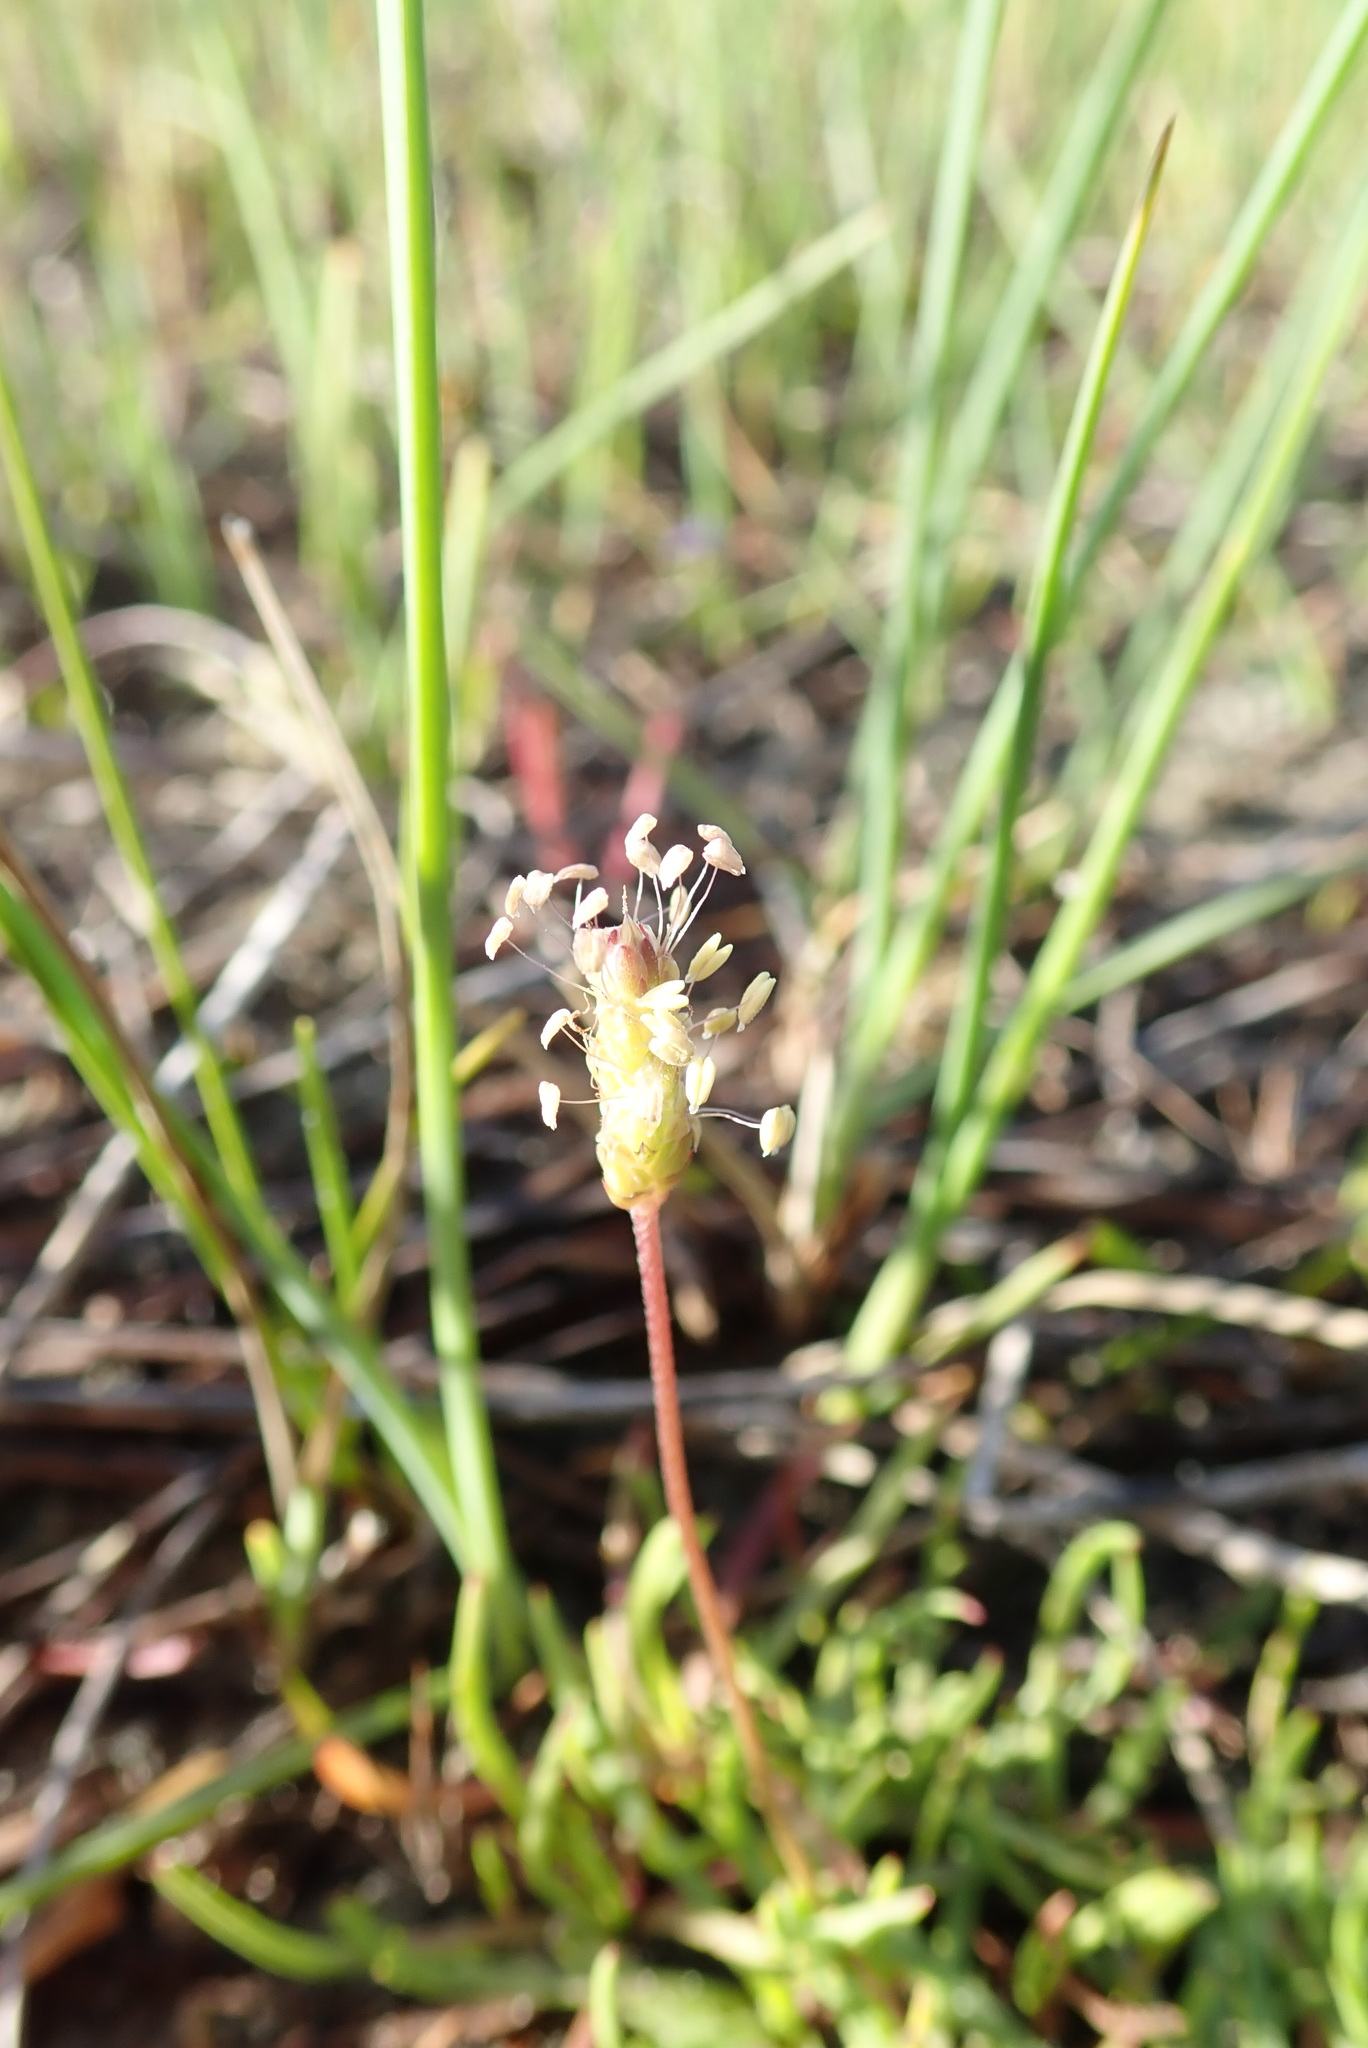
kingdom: Plantae
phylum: Tracheophyta
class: Magnoliopsida
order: Lamiales
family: Plantaginaceae
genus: Plantago
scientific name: Plantago coronopus
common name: Buck's-horn plantain
